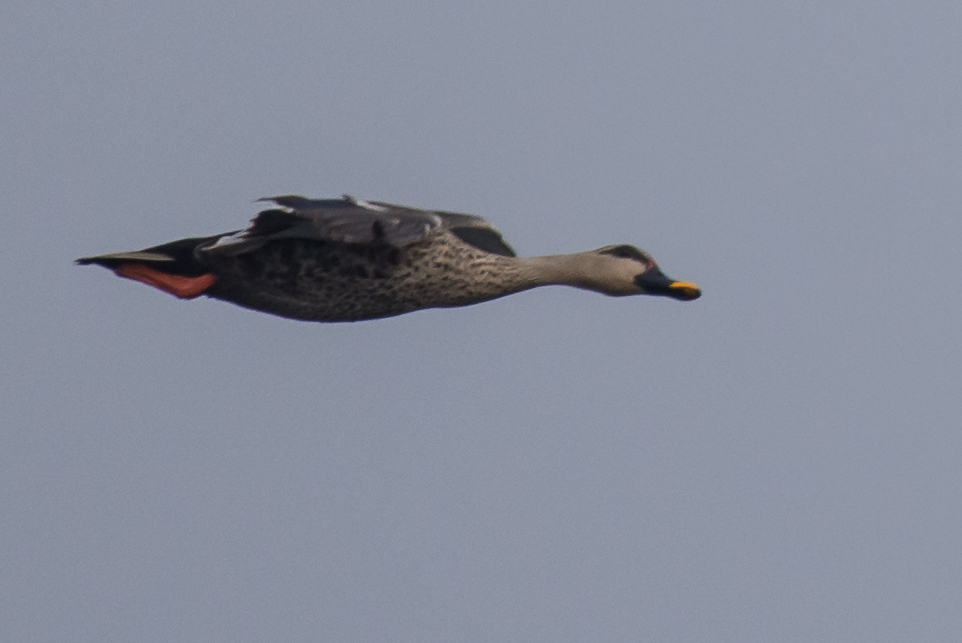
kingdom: Animalia
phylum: Chordata
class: Aves
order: Anseriformes
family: Anatidae
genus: Anas
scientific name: Anas poecilorhyncha
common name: Indian spot-billed duck
